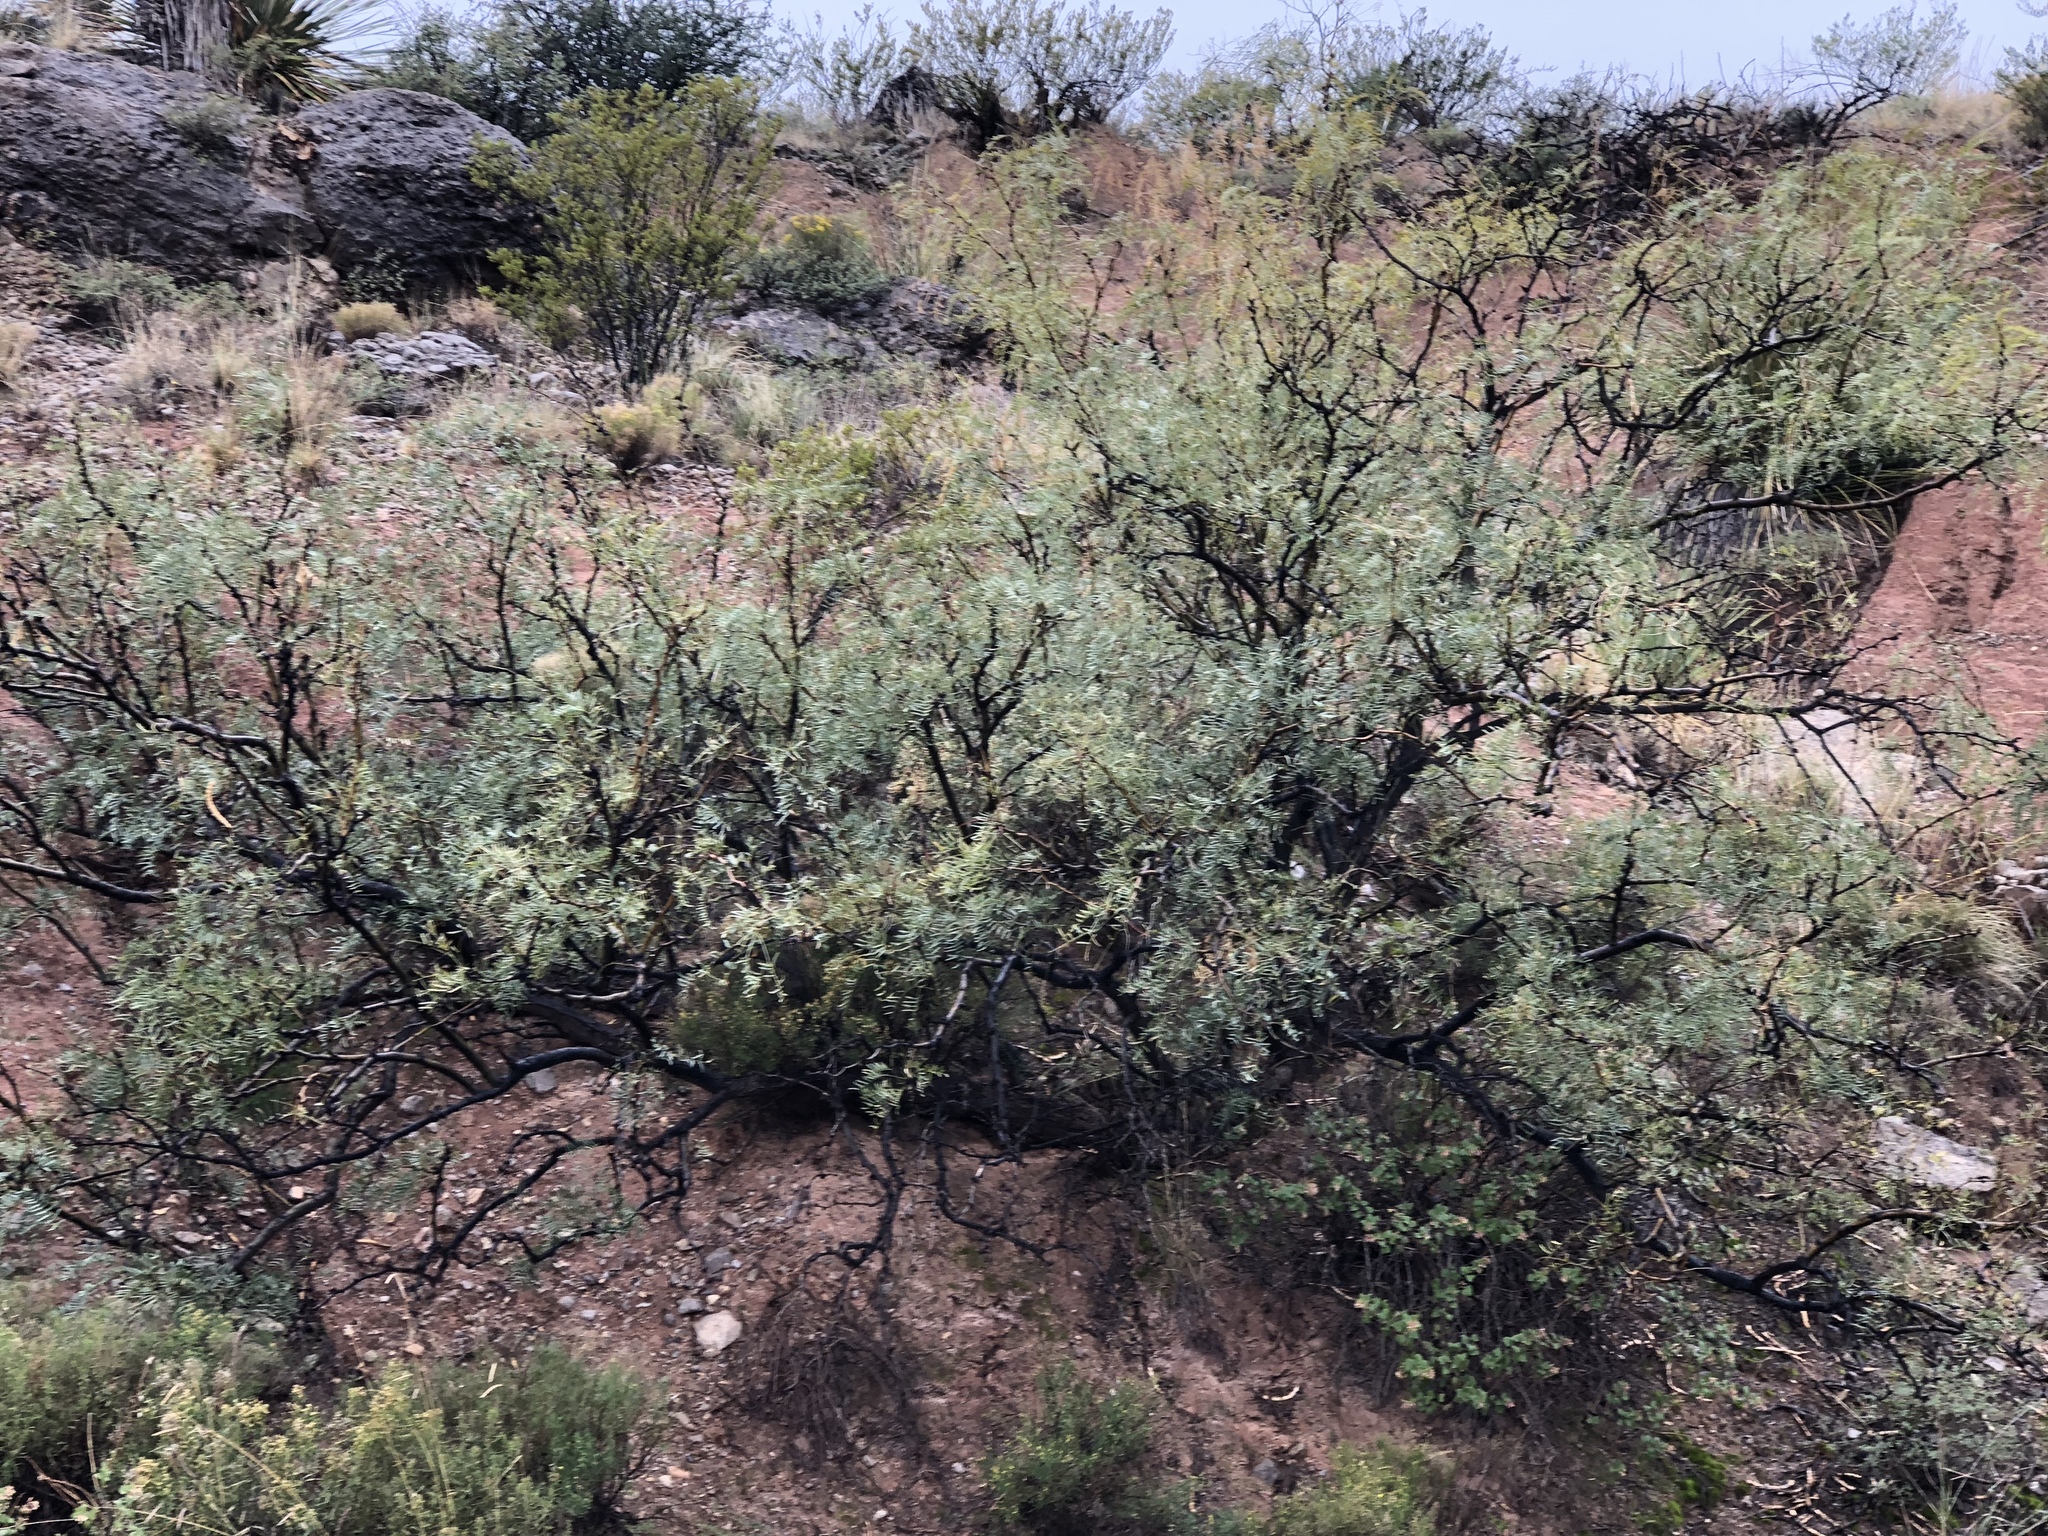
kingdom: Plantae
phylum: Tracheophyta
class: Magnoliopsida
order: Fabales
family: Fabaceae
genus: Prosopis
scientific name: Prosopis glandulosa
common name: Honey mesquite
